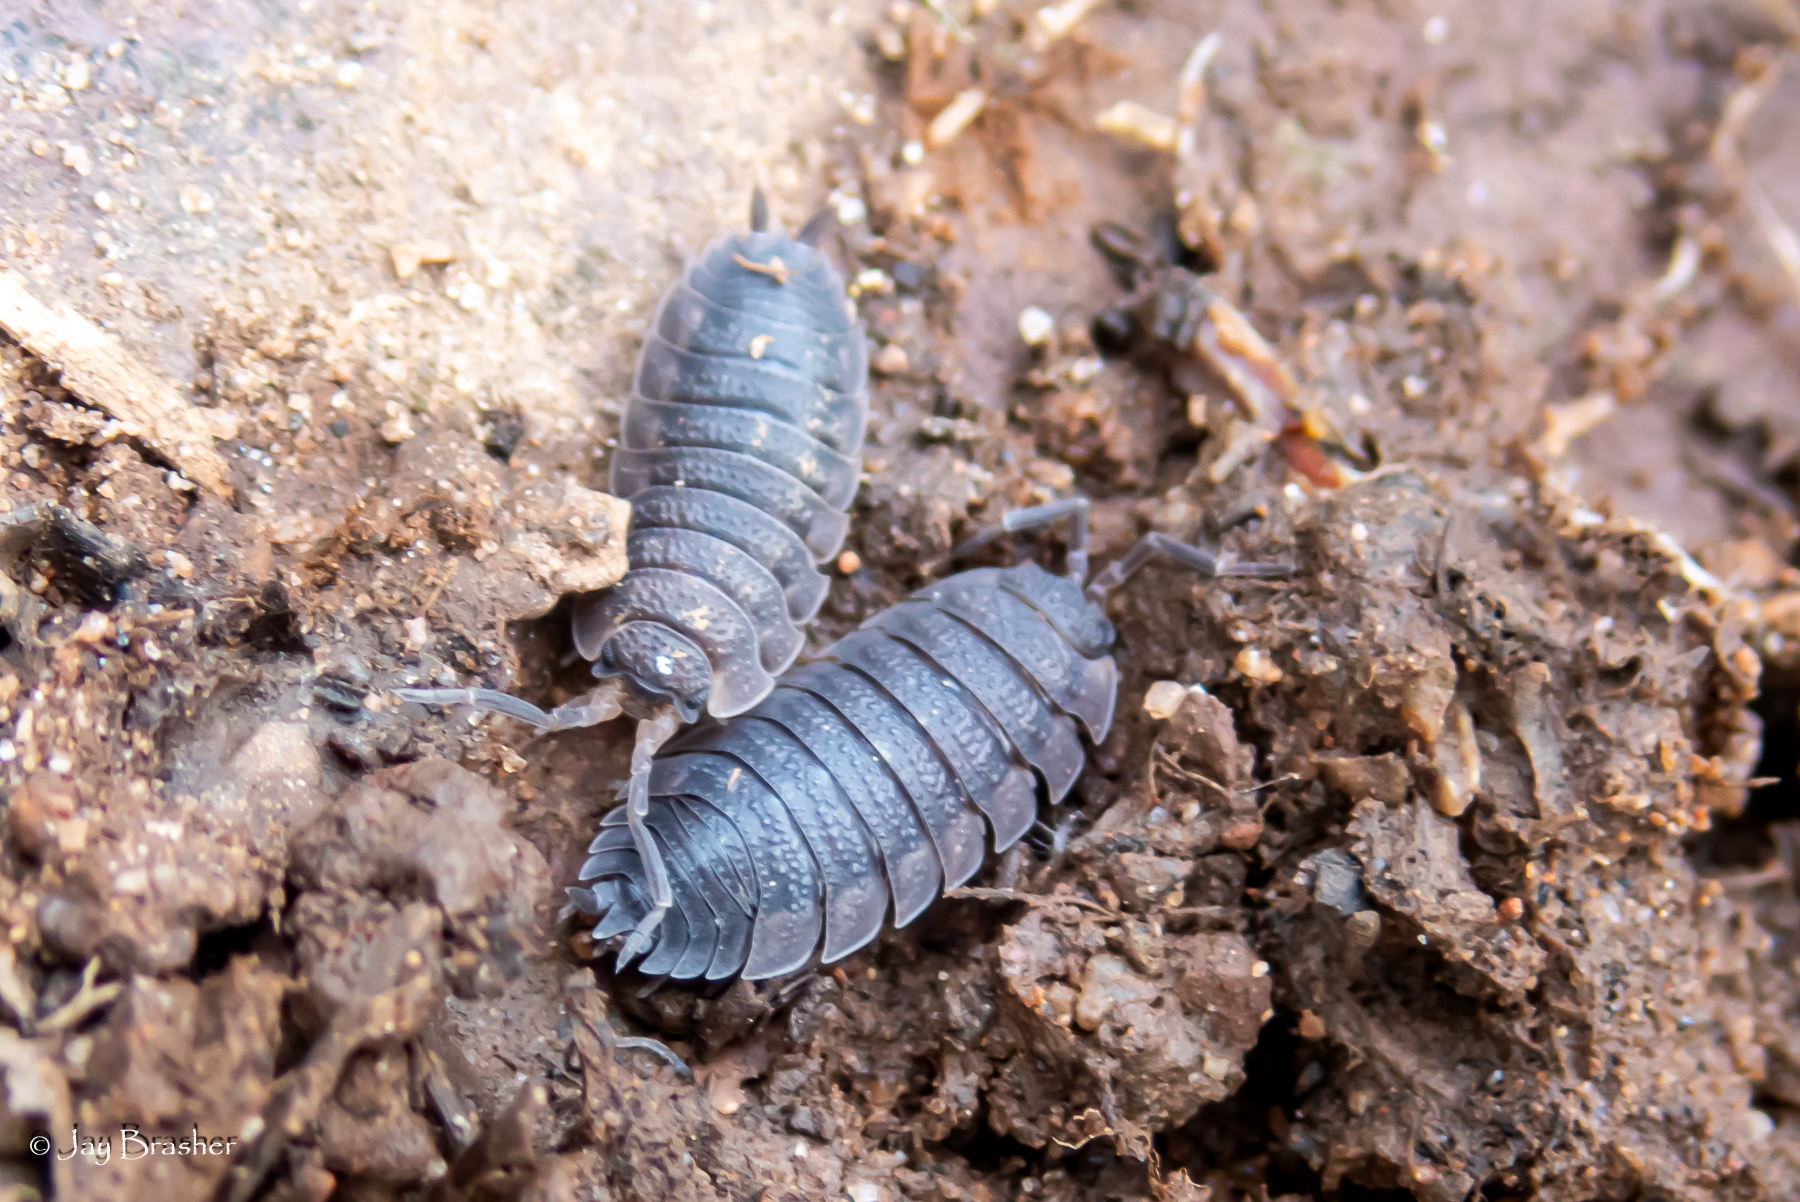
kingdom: Animalia
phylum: Arthropoda
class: Malacostraca
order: Isopoda
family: Porcellionidae
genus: Porcellio
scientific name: Porcellio scaber
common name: Common rough woodlouse
